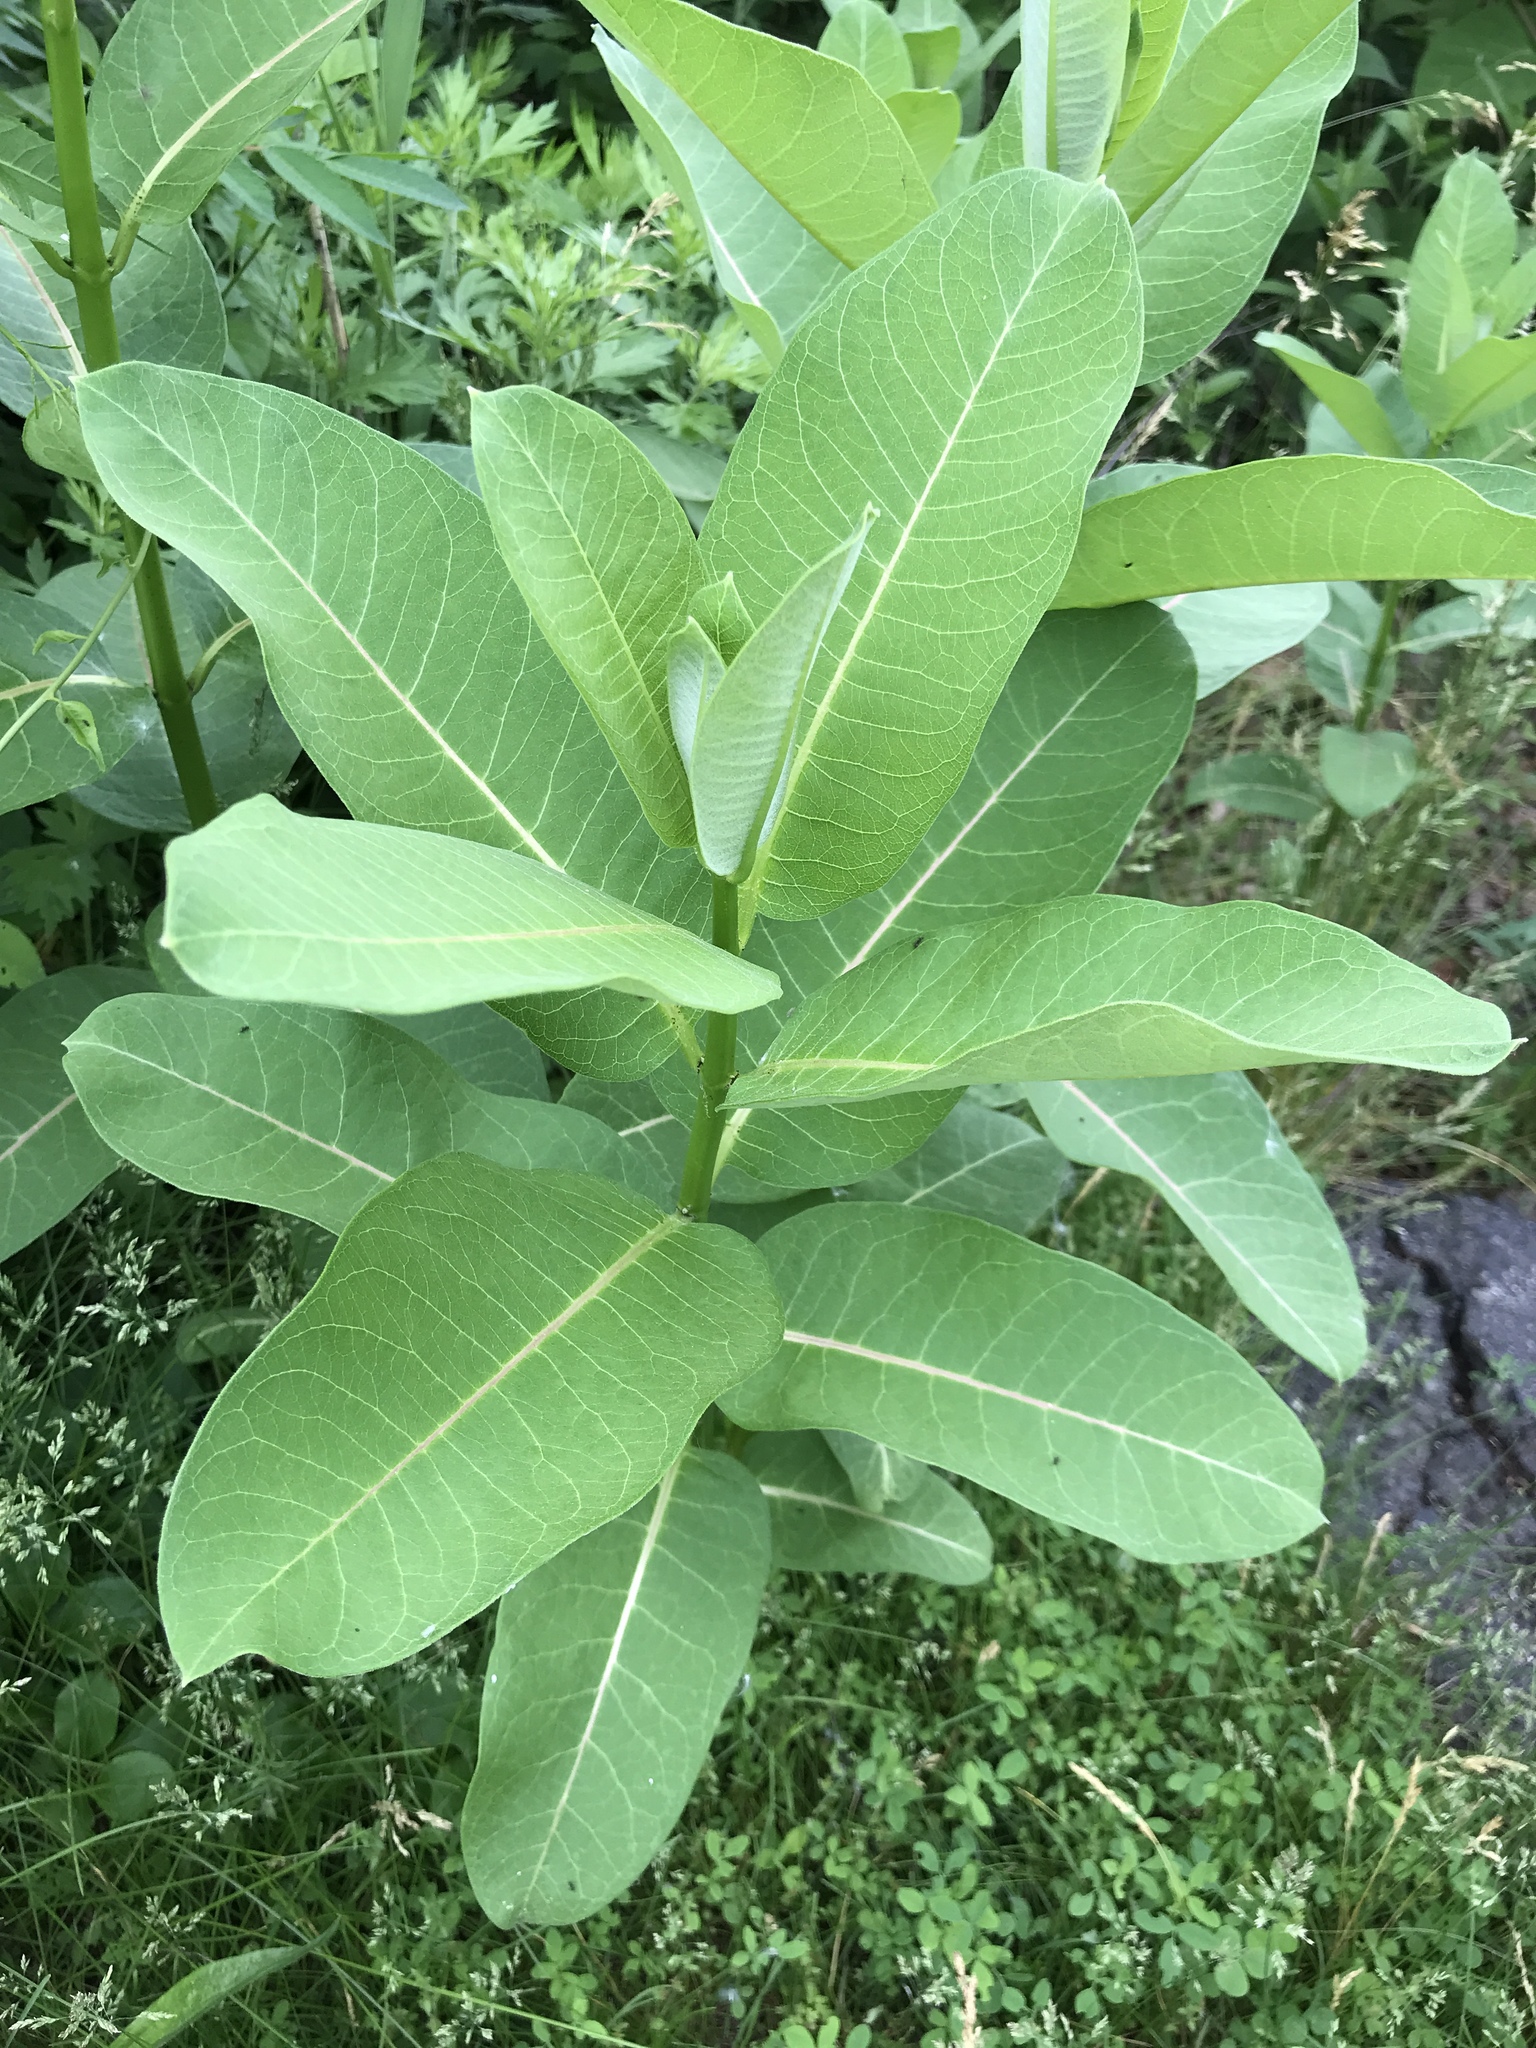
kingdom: Plantae
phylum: Tracheophyta
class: Magnoliopsida
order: Gentianales
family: Apocynaceae
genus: Asclepias
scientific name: Asclepias syriaca
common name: Common milkweed
